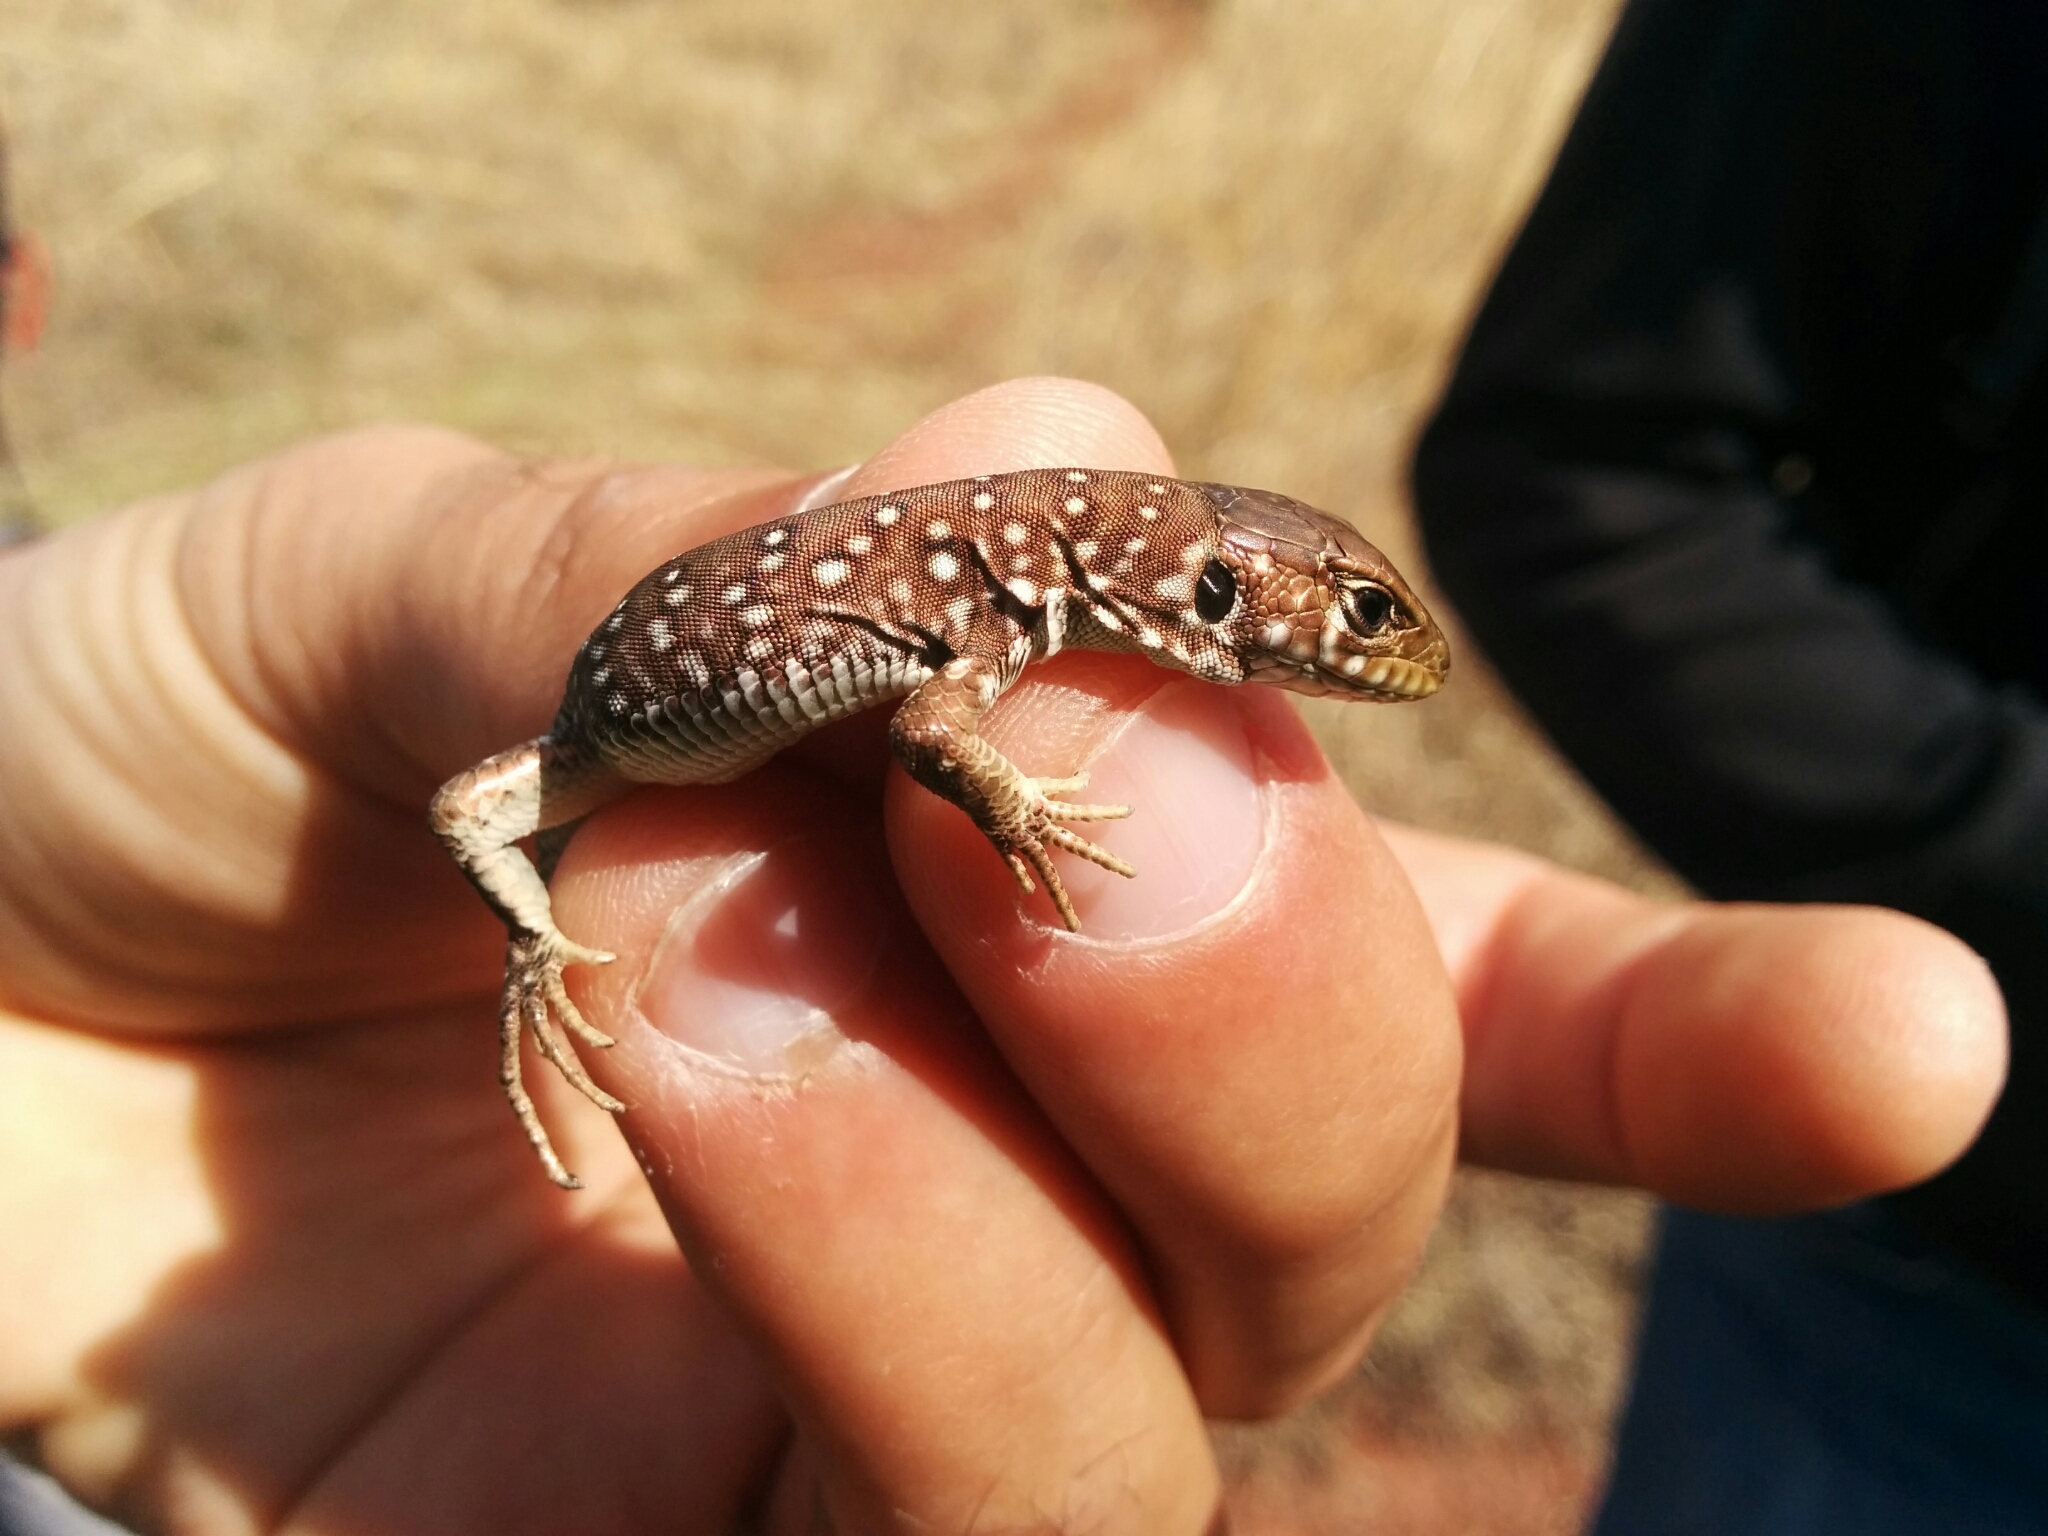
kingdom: Animalia
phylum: Chordata
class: Squamata
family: Lacertidae
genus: Timon
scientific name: Timon lepidus
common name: Ocellated lizard
